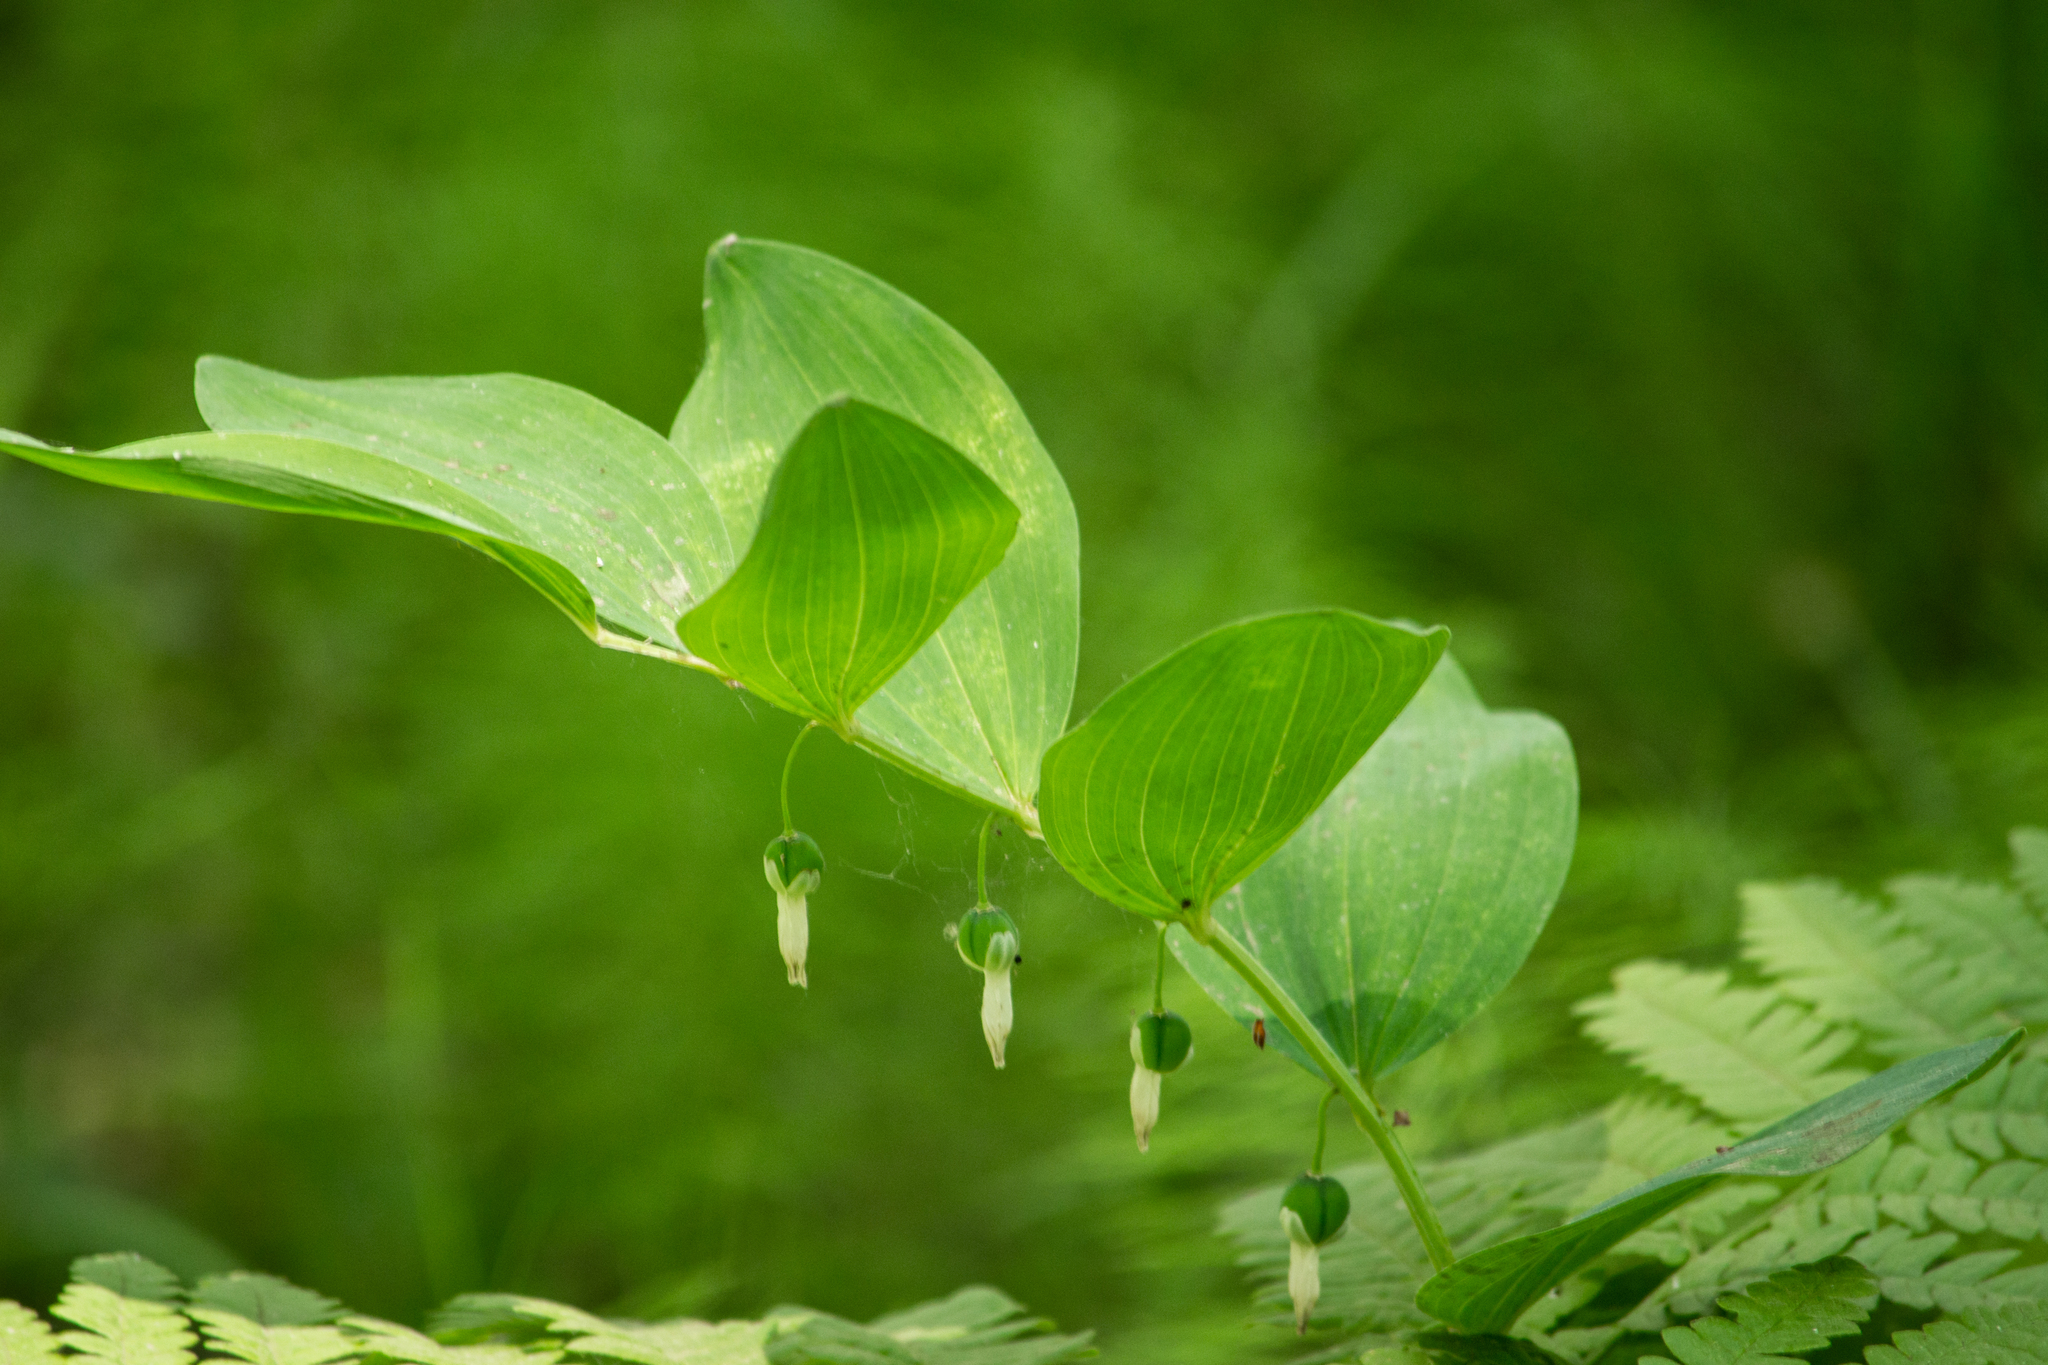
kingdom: Plantae
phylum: Tracheophyta
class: Liliopsida
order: Asparagales
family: Asparagaceae
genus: Polygonatum
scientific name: Polygonatum odoratum
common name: Angular solomon's-seal
